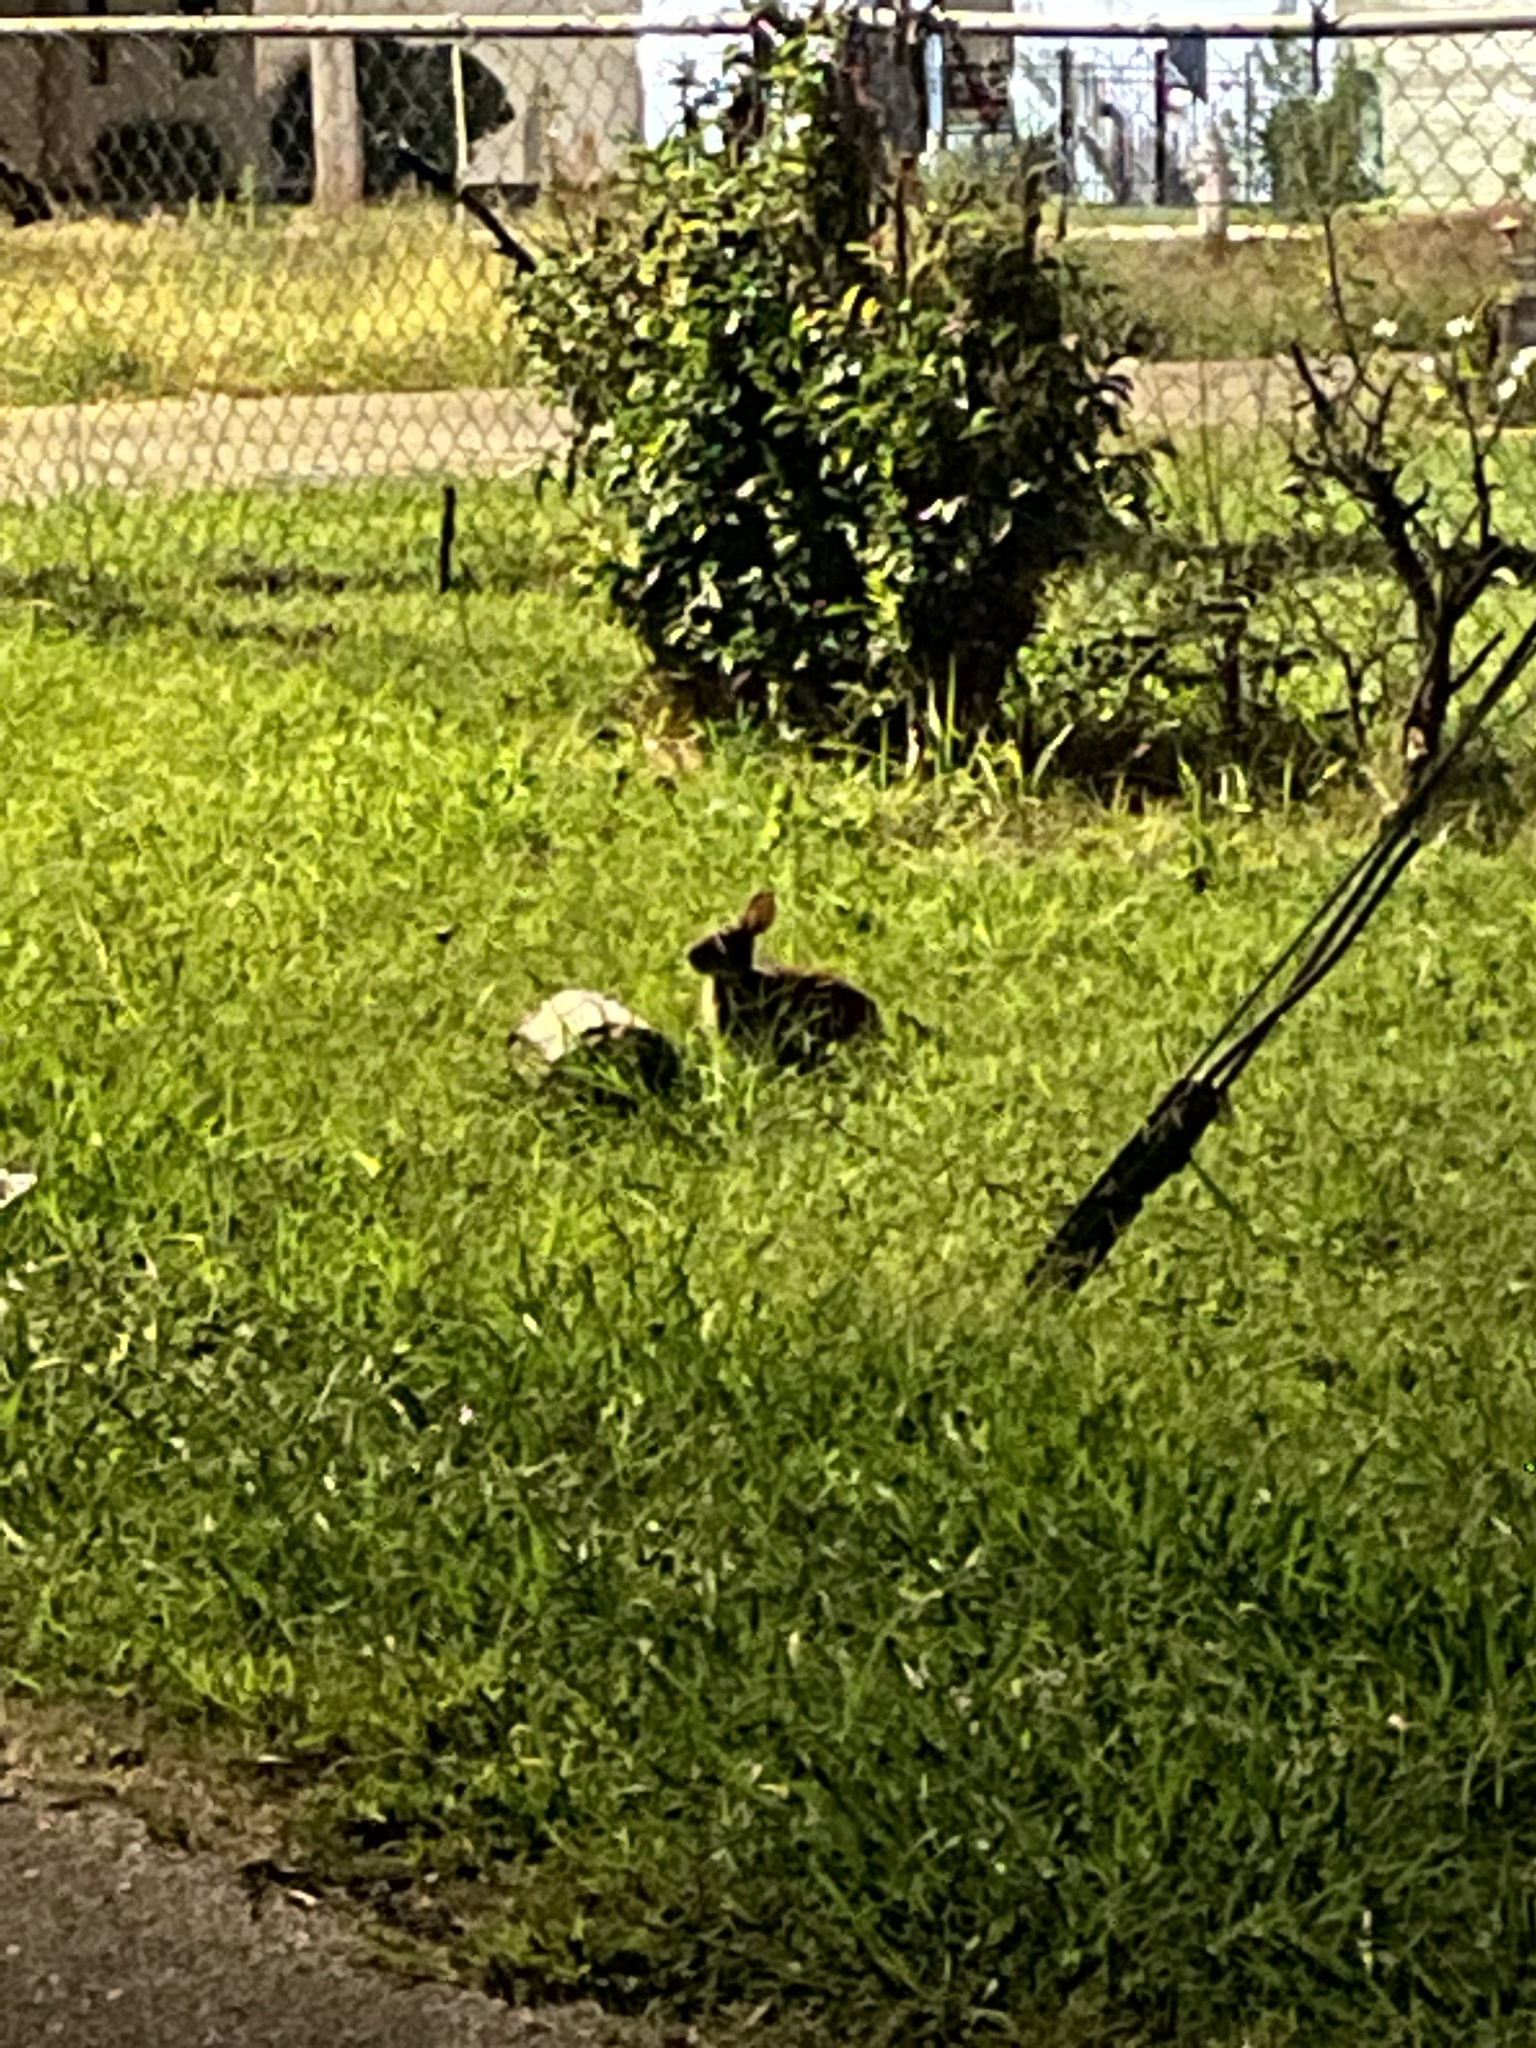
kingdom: Animalia
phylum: Chordata
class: Mammalia
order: Lagomorpha
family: Leporidae
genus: Sylvilagus
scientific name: Sylvilagus floridanus
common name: Eastern cottontail
